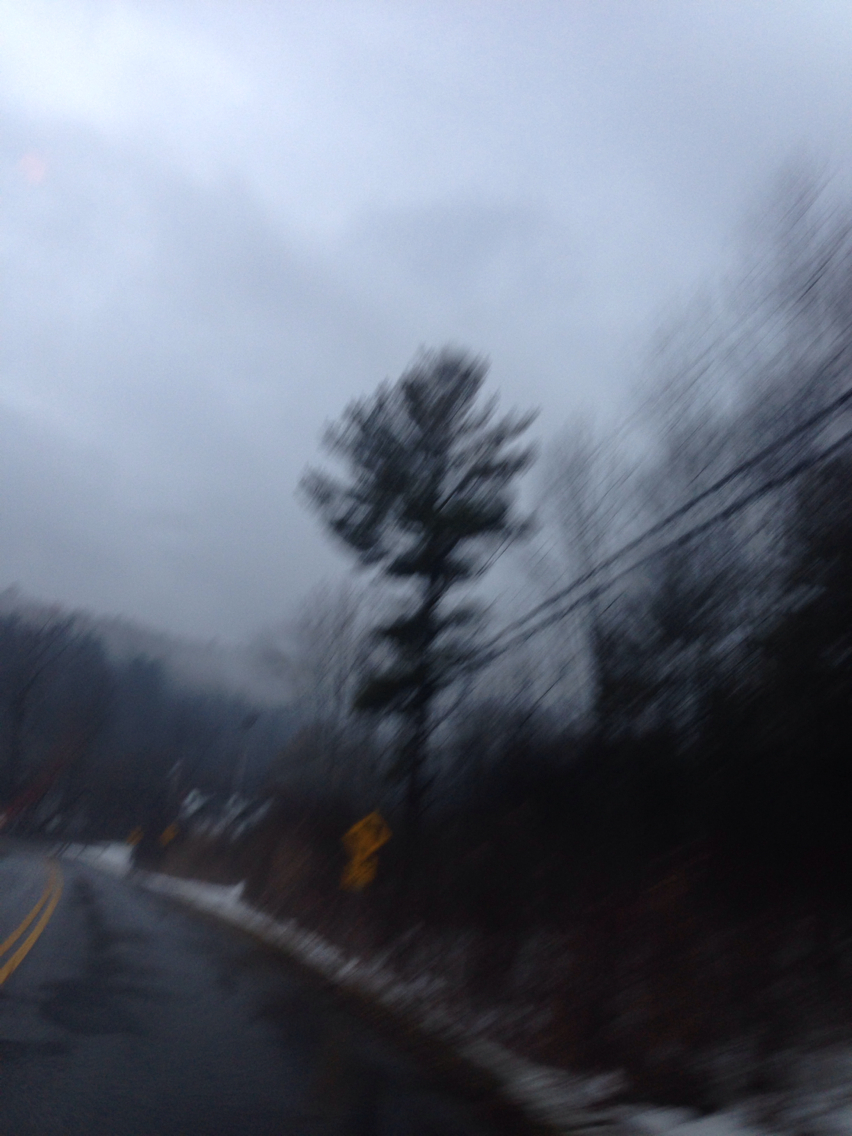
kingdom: Plantae
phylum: Tracheophyta
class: Pinopsida
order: Pinales
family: Pinaceae
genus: Pinus
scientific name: Pinus strobus
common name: Weymouth pine
